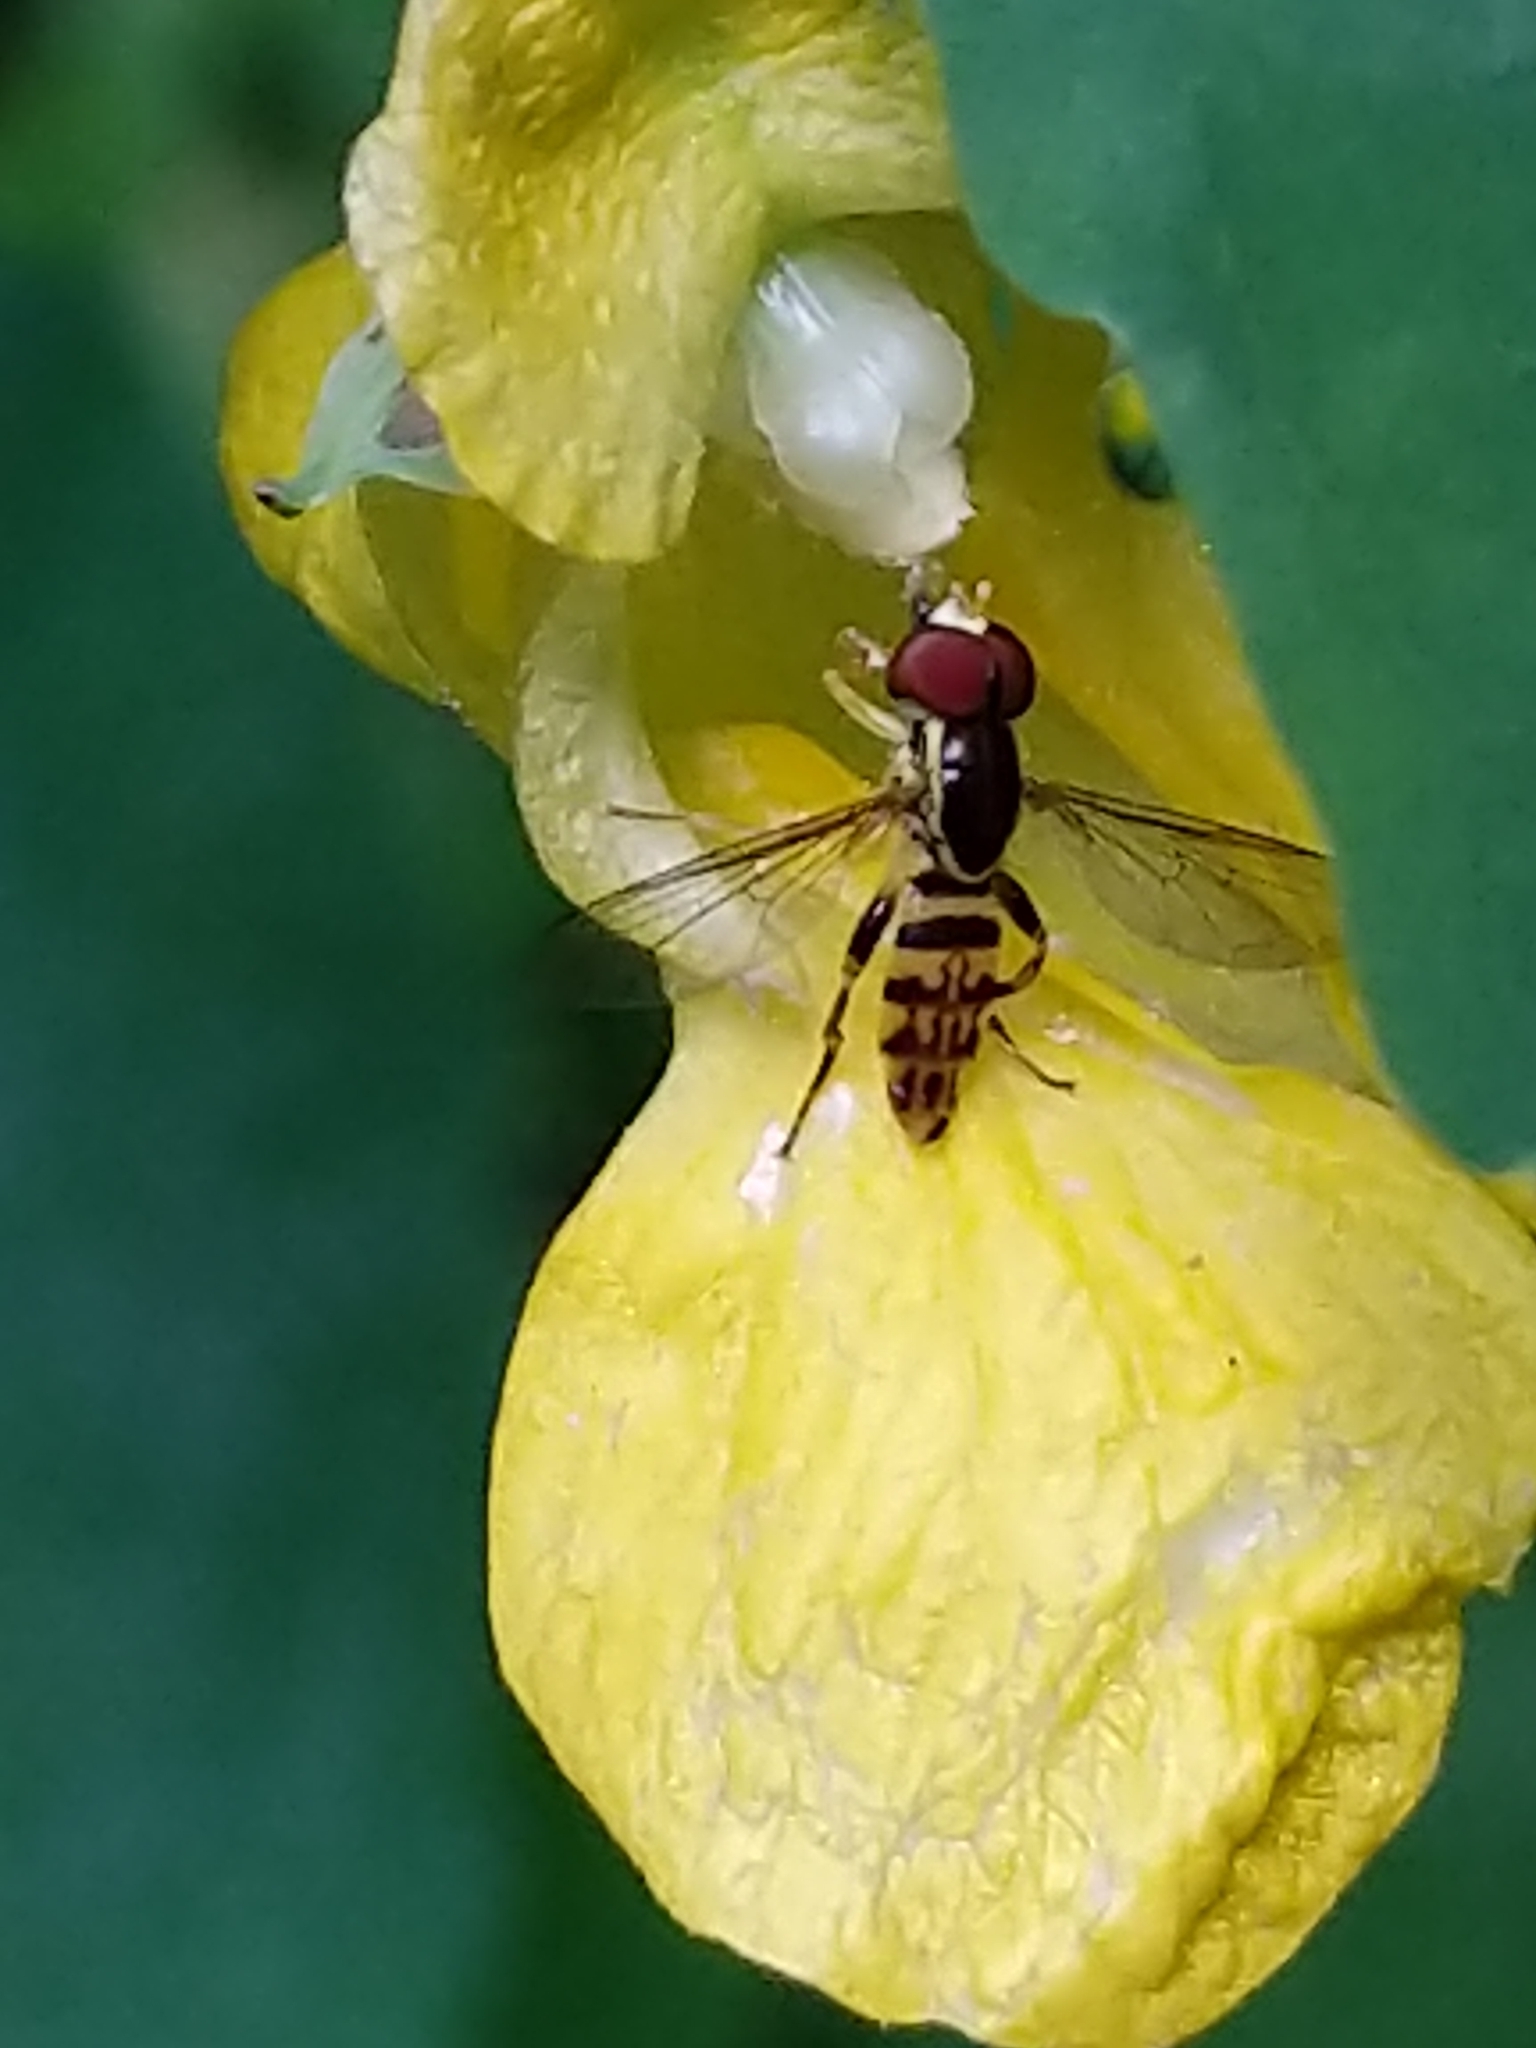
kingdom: Animalia
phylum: Arthropoda
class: Insecta
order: Diptera
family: Syrphidae
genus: Toxomerus
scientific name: Toxomerus geminatus
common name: Eastern calligrapher
